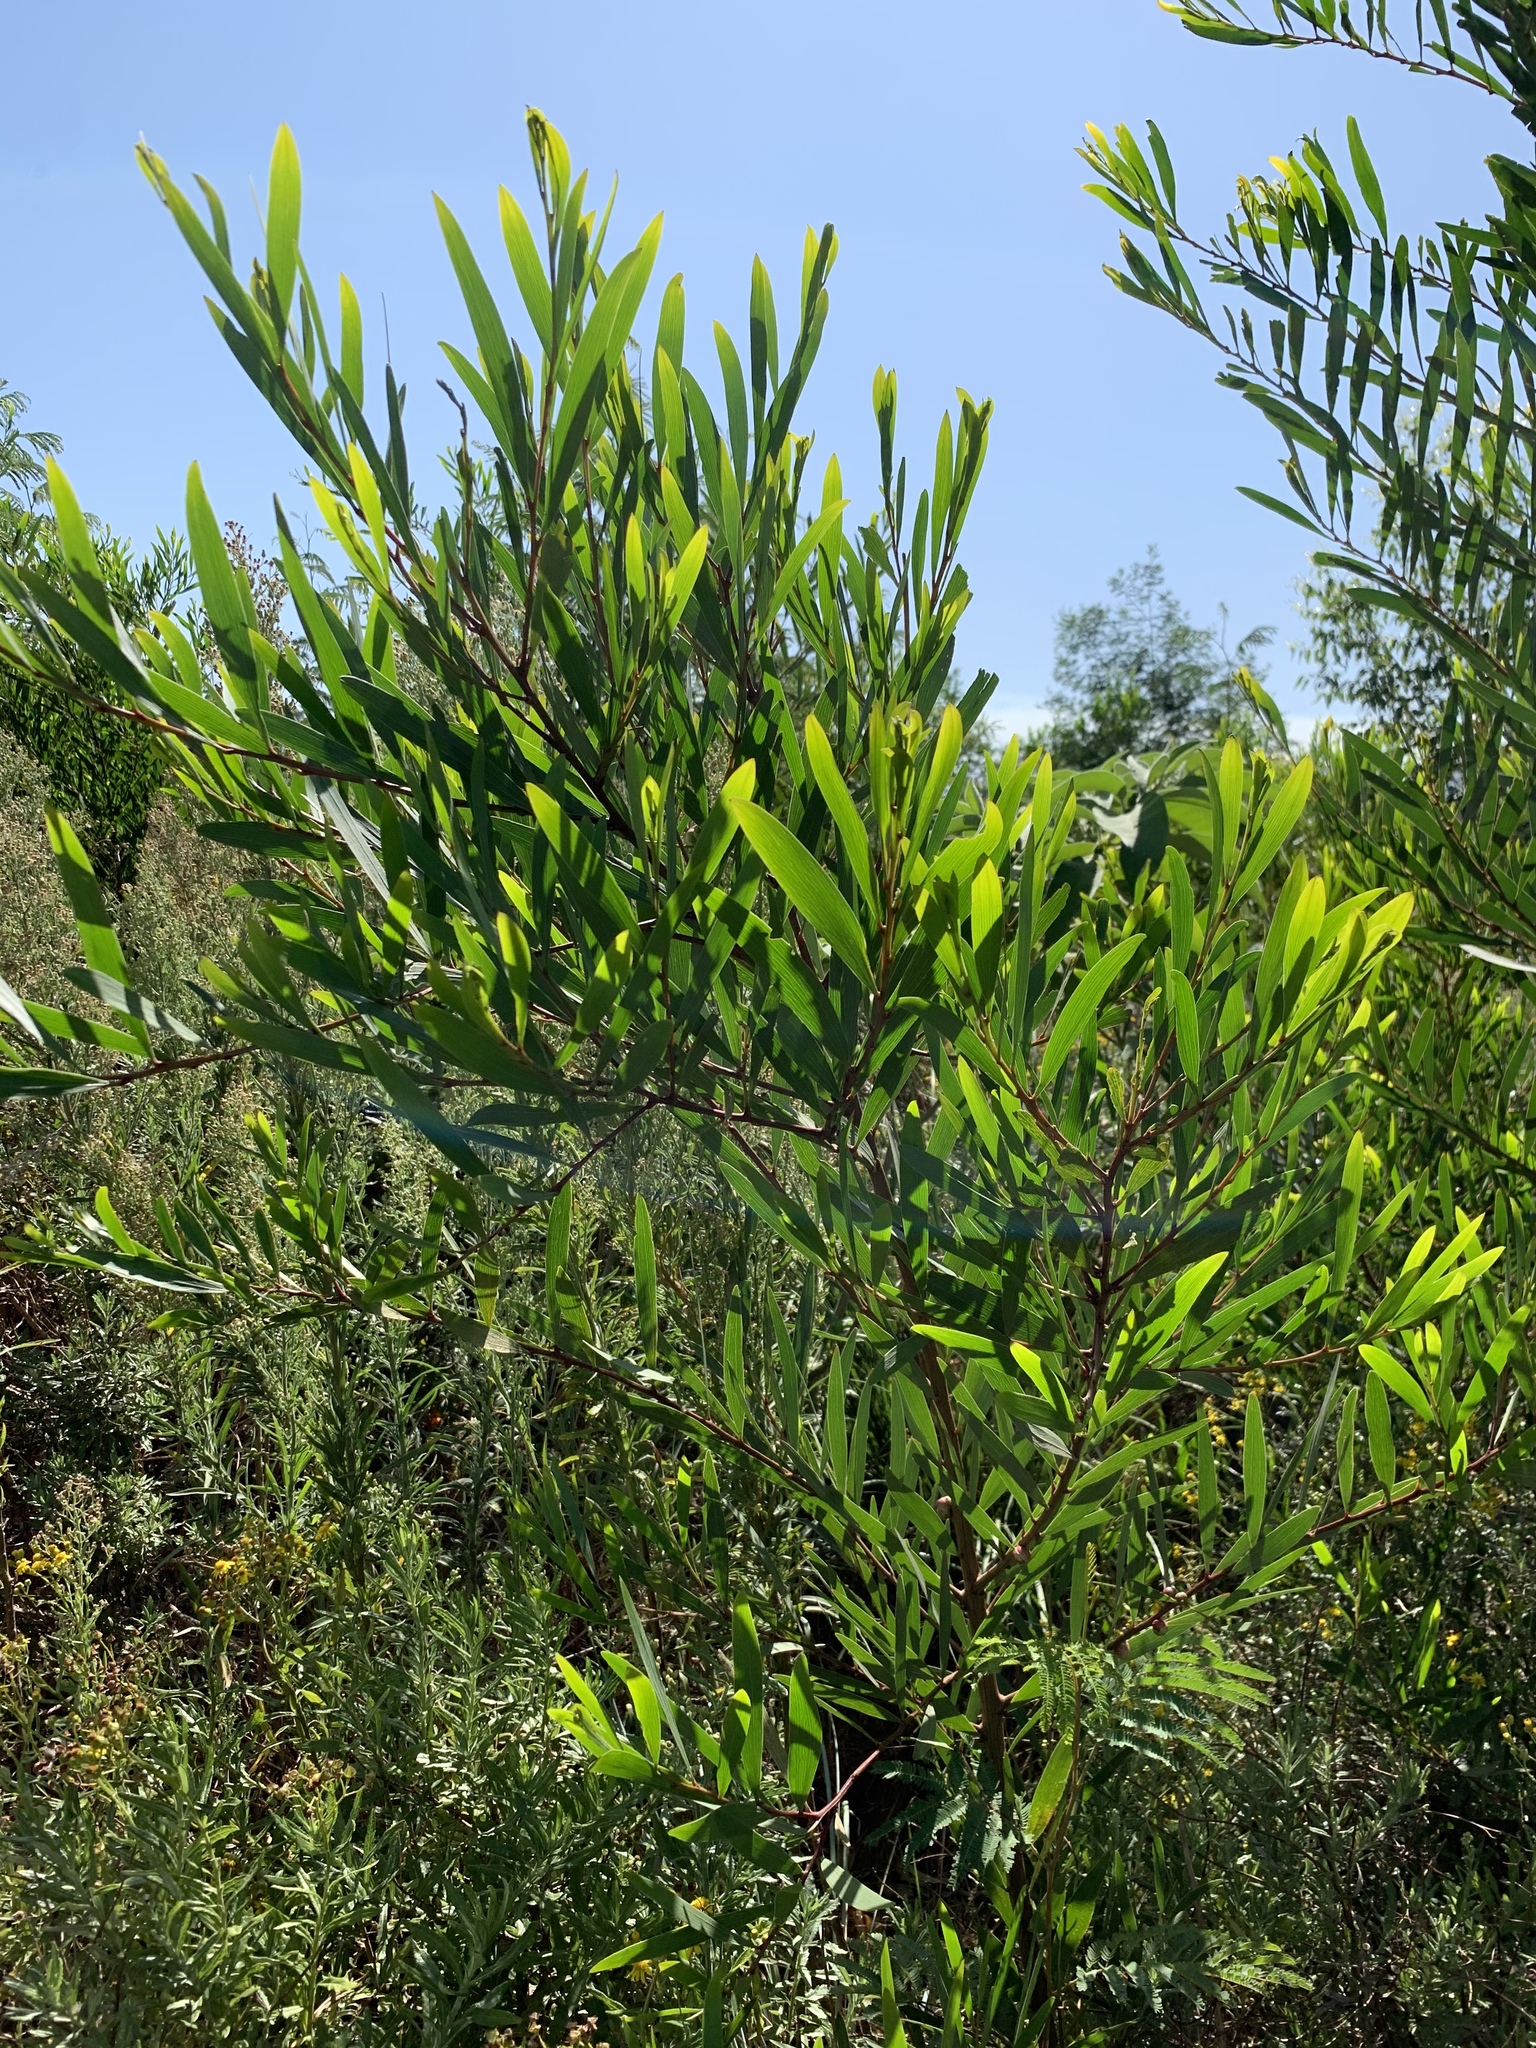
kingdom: Plantae
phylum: Tracheophyta
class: Magnoliopsida
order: Fabales
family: Fabaceae
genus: Acacia
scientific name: Acacia longifolia
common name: Sydney golden wattle
